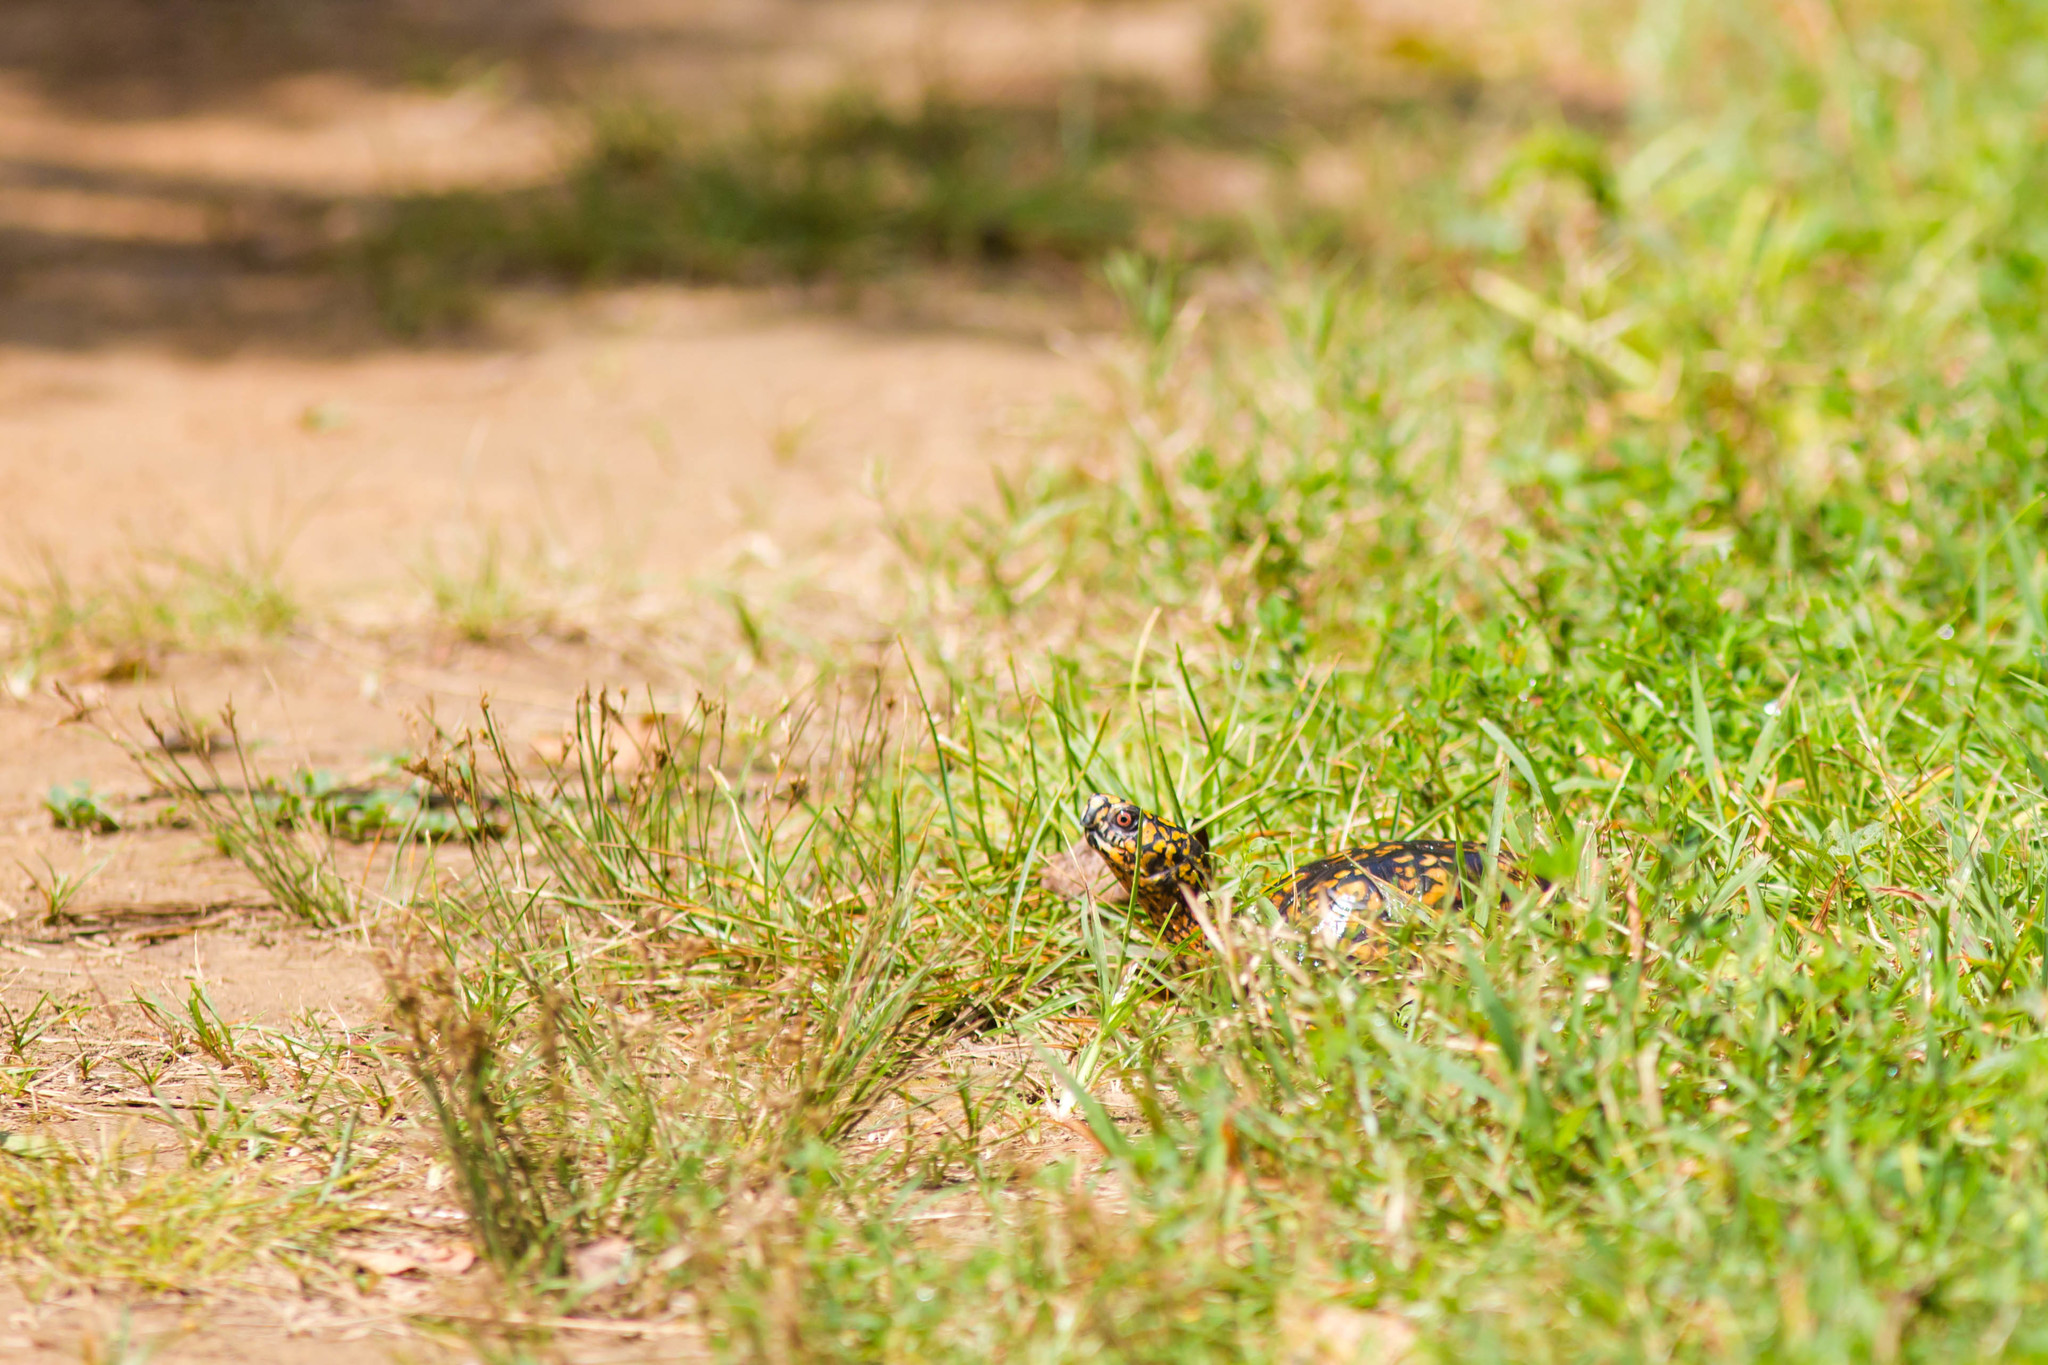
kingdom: Animalia
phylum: Chordata
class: Testudines
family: Emydidae
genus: Terrapene
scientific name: Terrapene carolina
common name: Common box turtle
